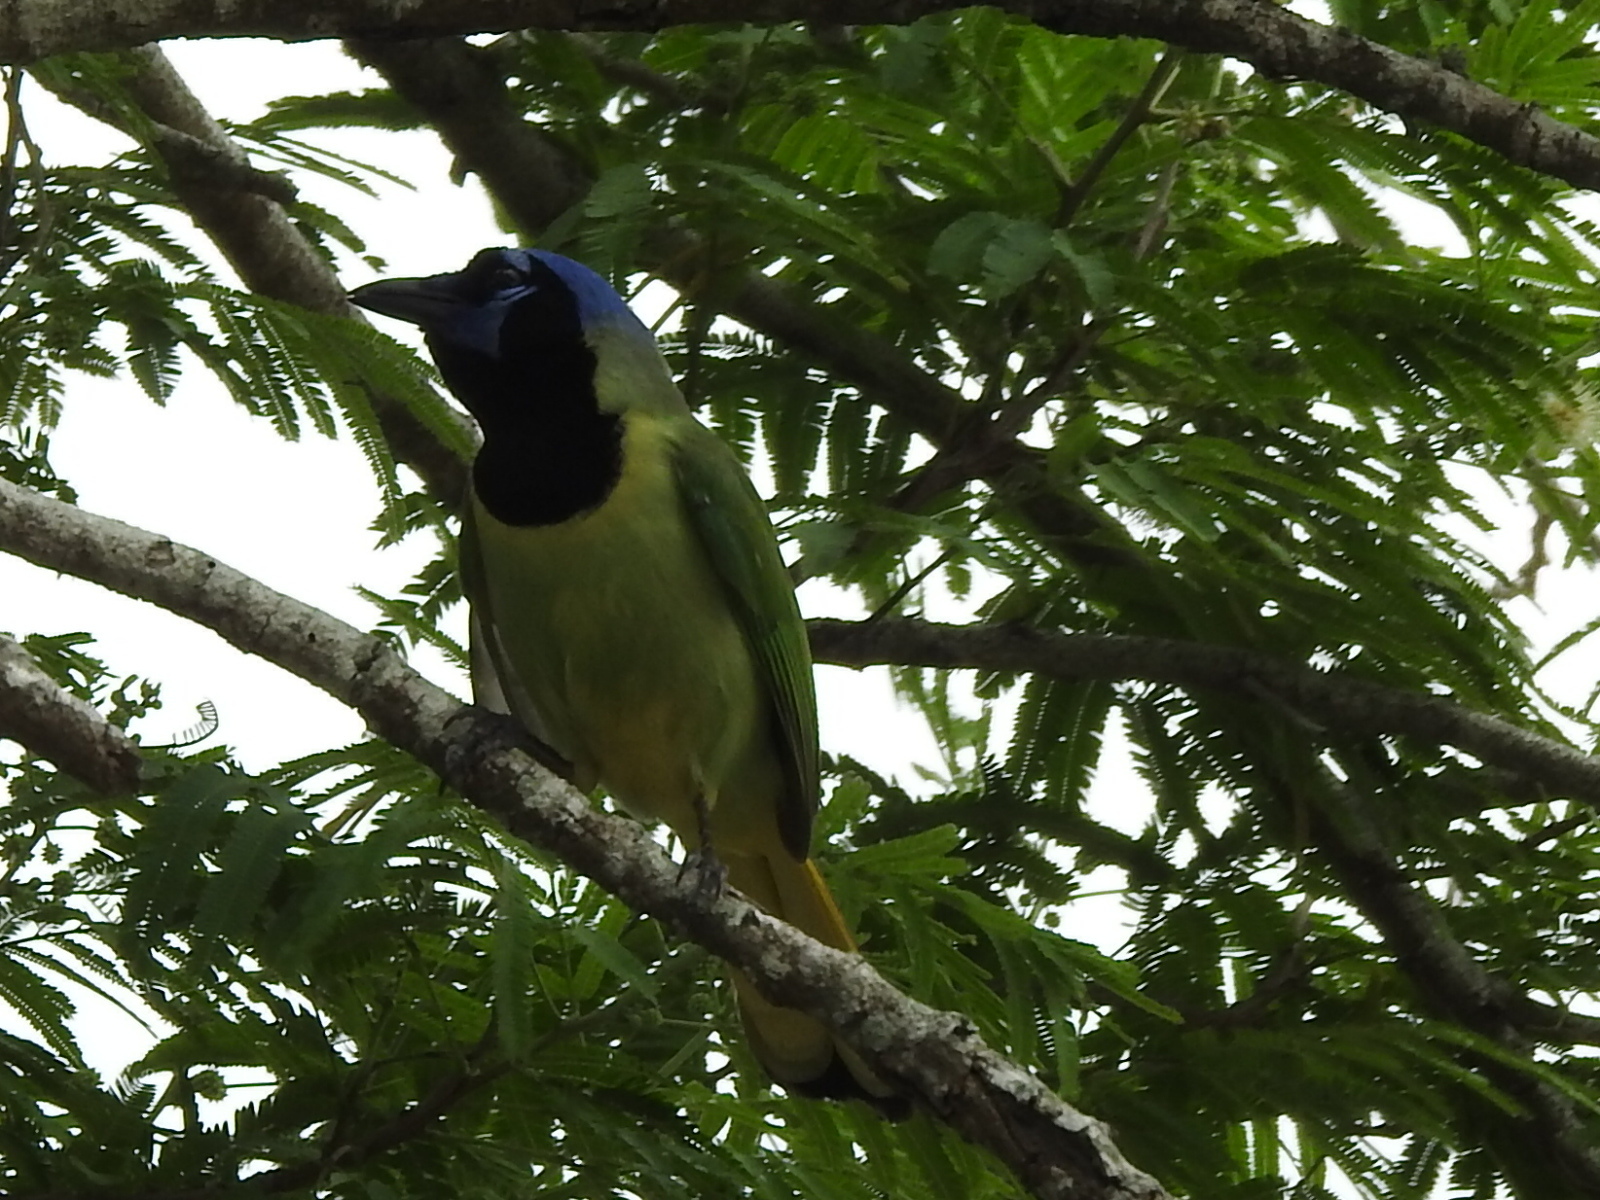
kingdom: Animalia
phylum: Chordata
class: Aves
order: Passeriformes
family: Corvidae
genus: Cyanocorax
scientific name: Cyanocorax yncas
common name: Green jay
